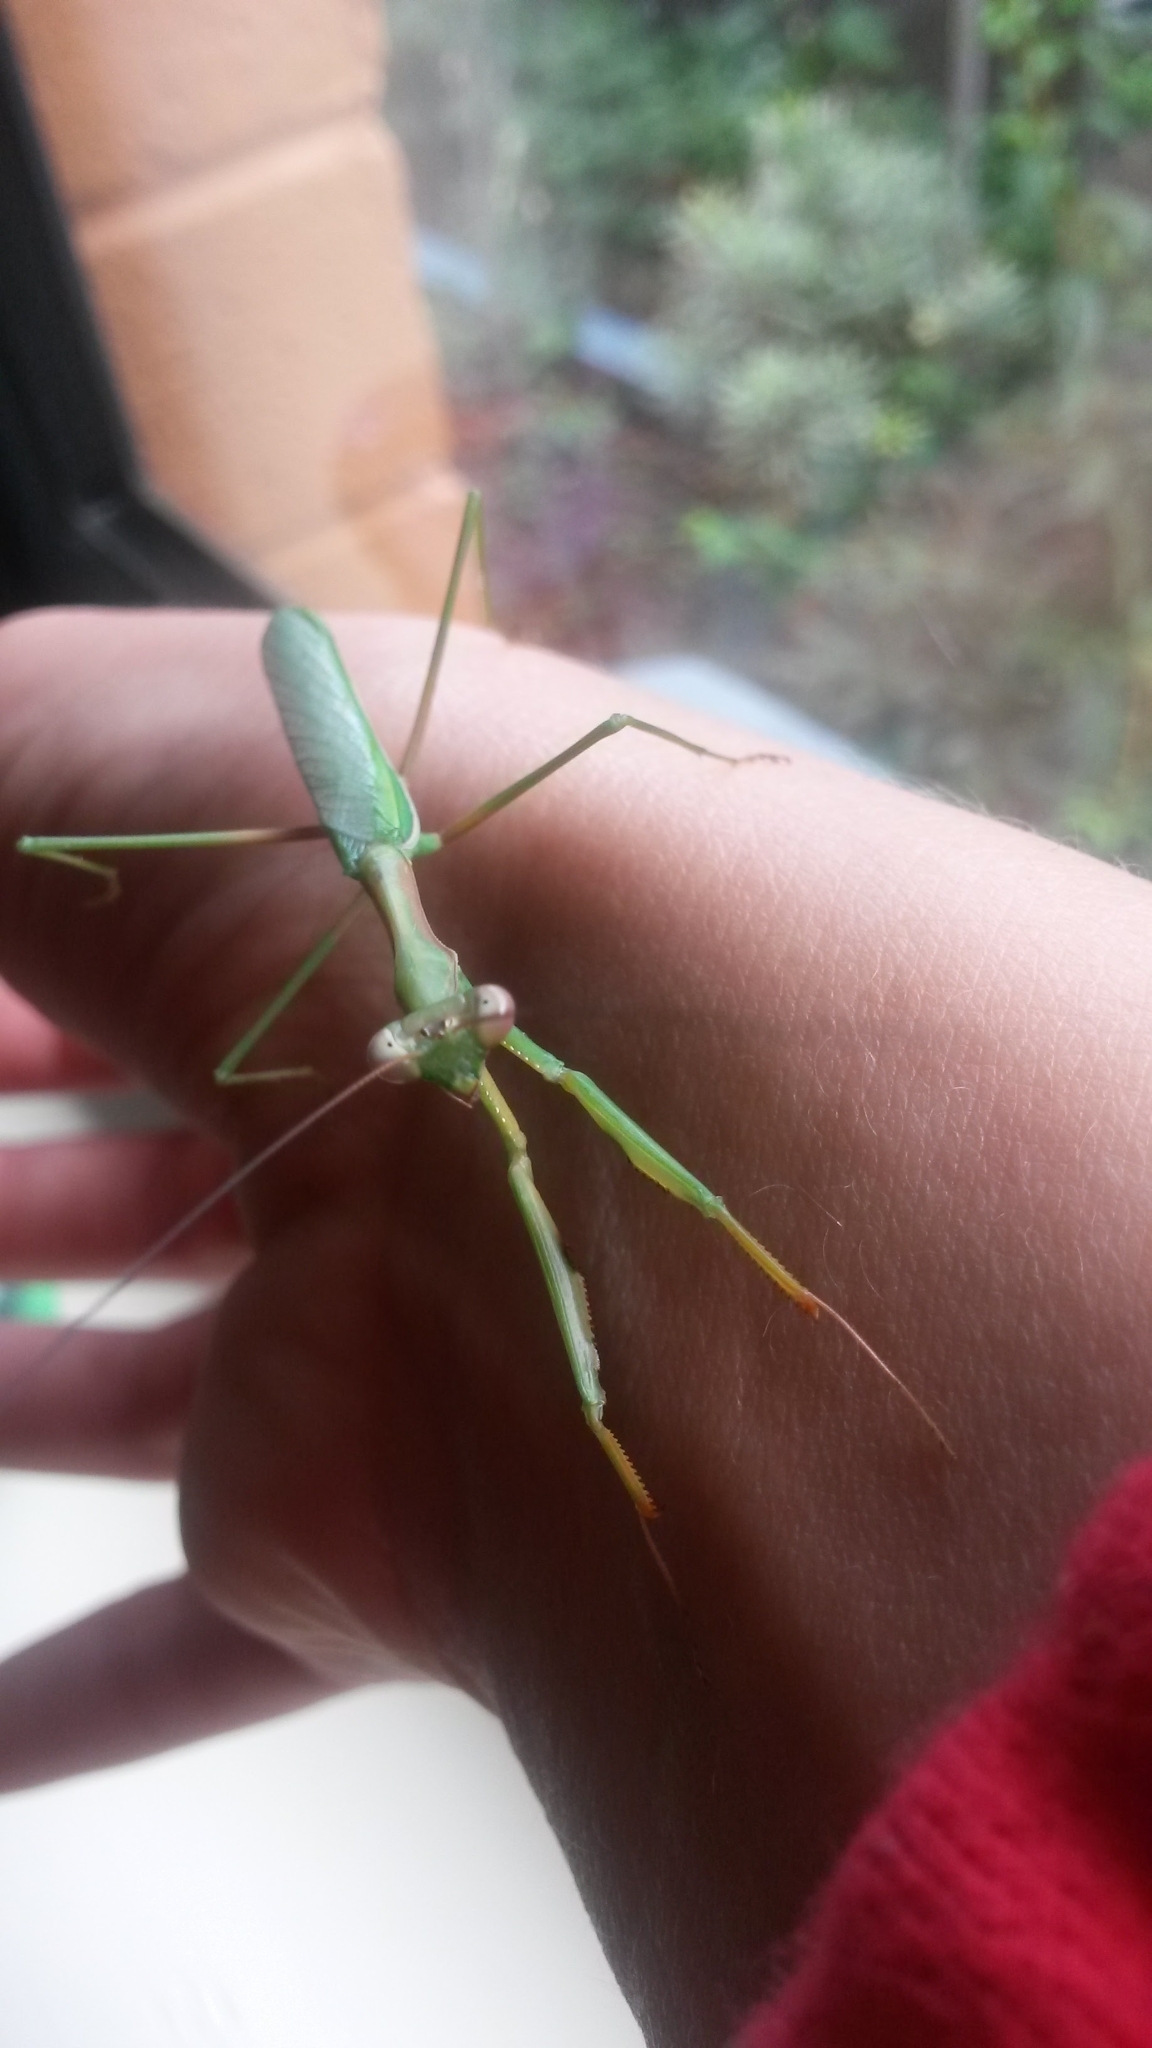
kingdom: Animalia
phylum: Arthropoda
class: Insecta
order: Mantodea
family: Mantidae
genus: Pseudomantis
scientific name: Pseudomantis albofimbriata
